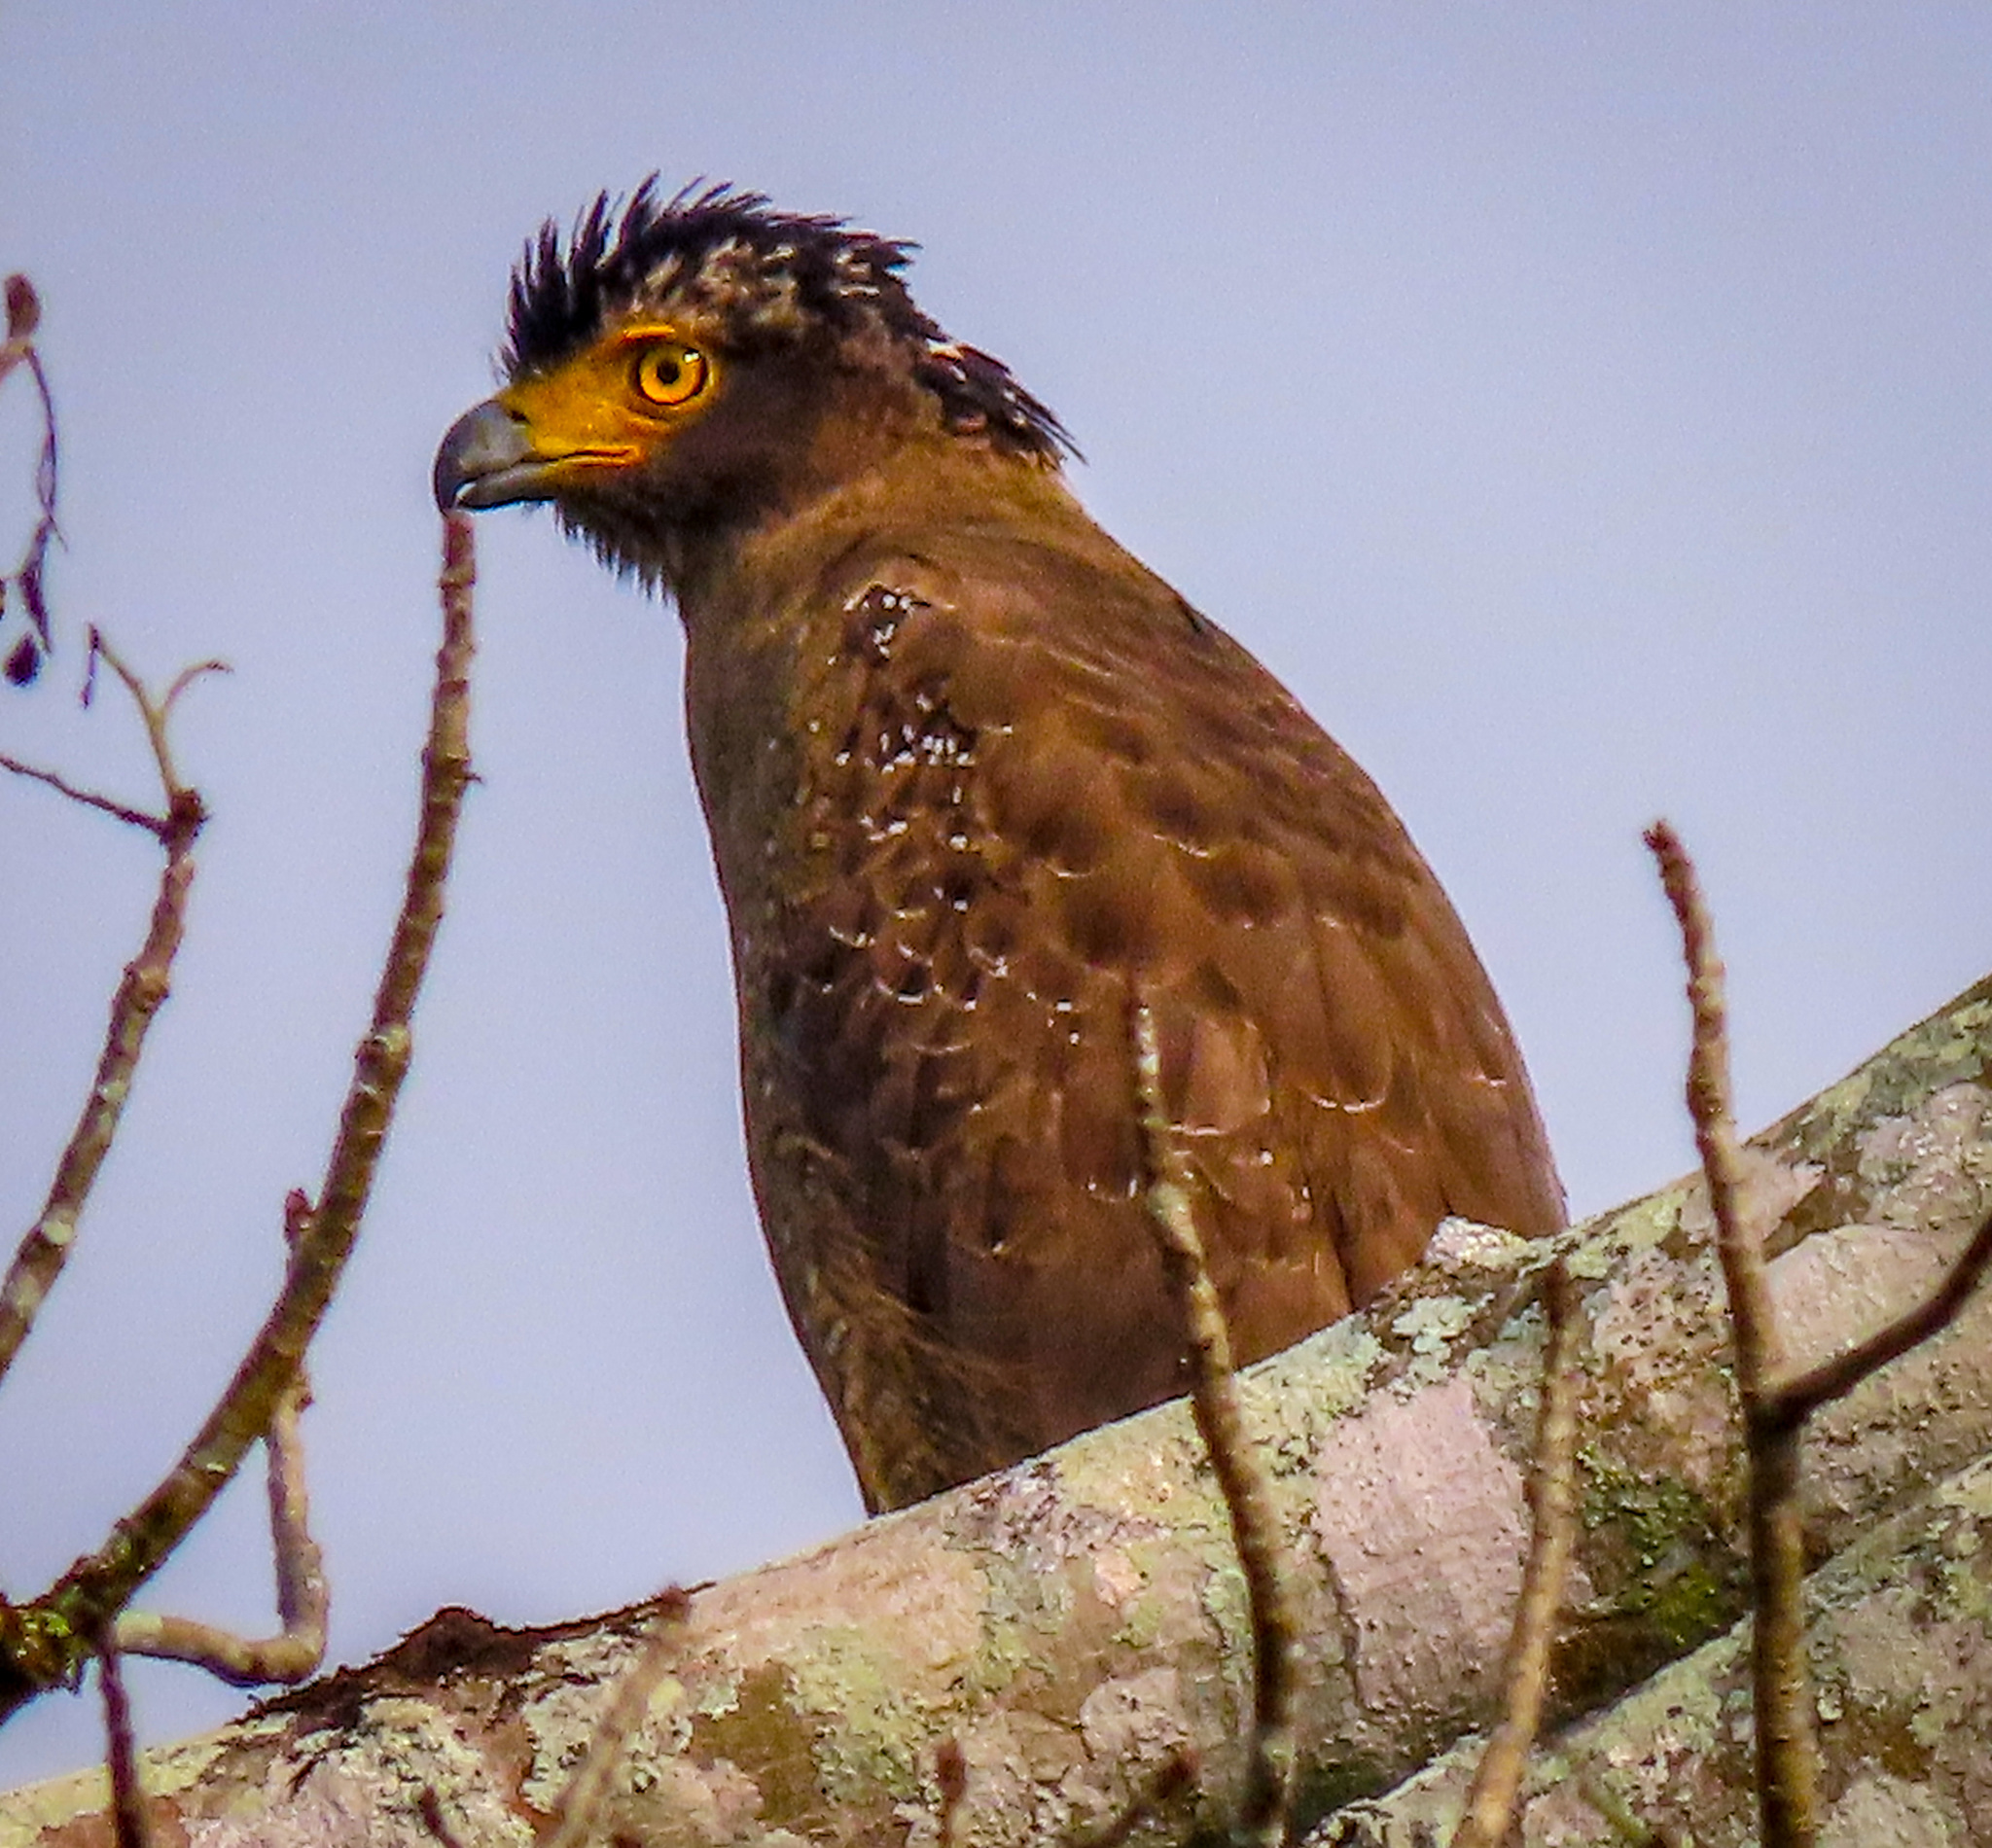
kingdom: Animalia
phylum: Chordata
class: Aves
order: Accipitriformes
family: Accipitridae
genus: Spilornis
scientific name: Spilornis cheela
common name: Crested serpent eagle
